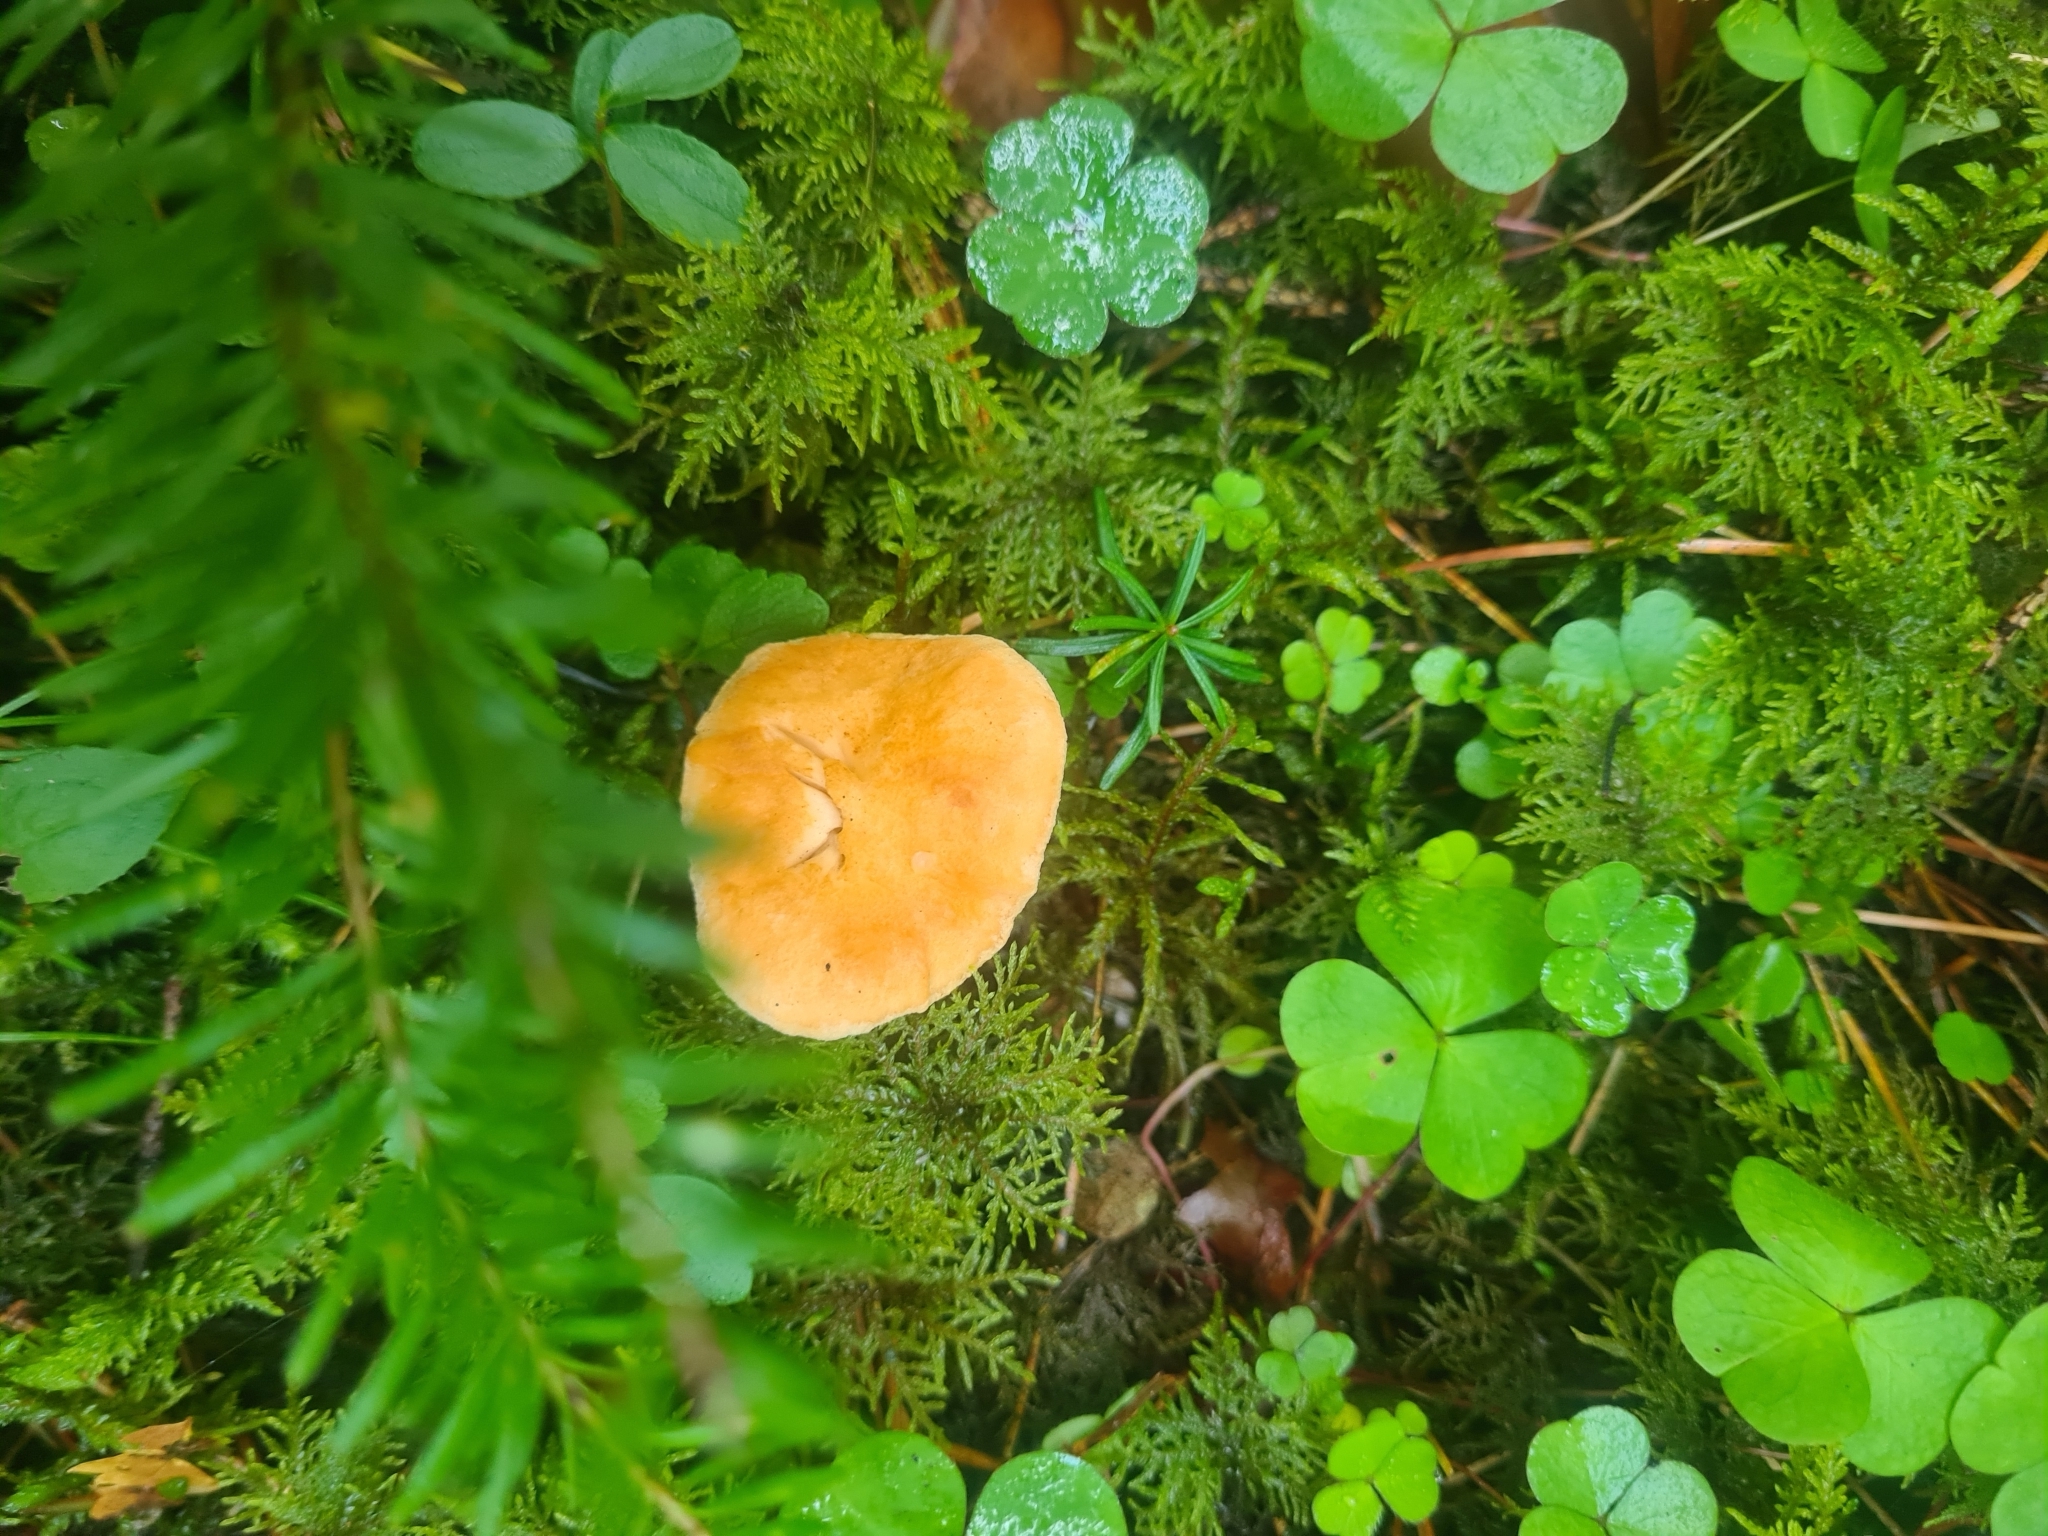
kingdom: Fungi
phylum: Basidiomycota
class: Agaricomycetes
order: Cantharellales
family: Hydnaceae
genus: Hydnum
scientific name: Hydnum rufescens
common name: Terracotta hedgehog
